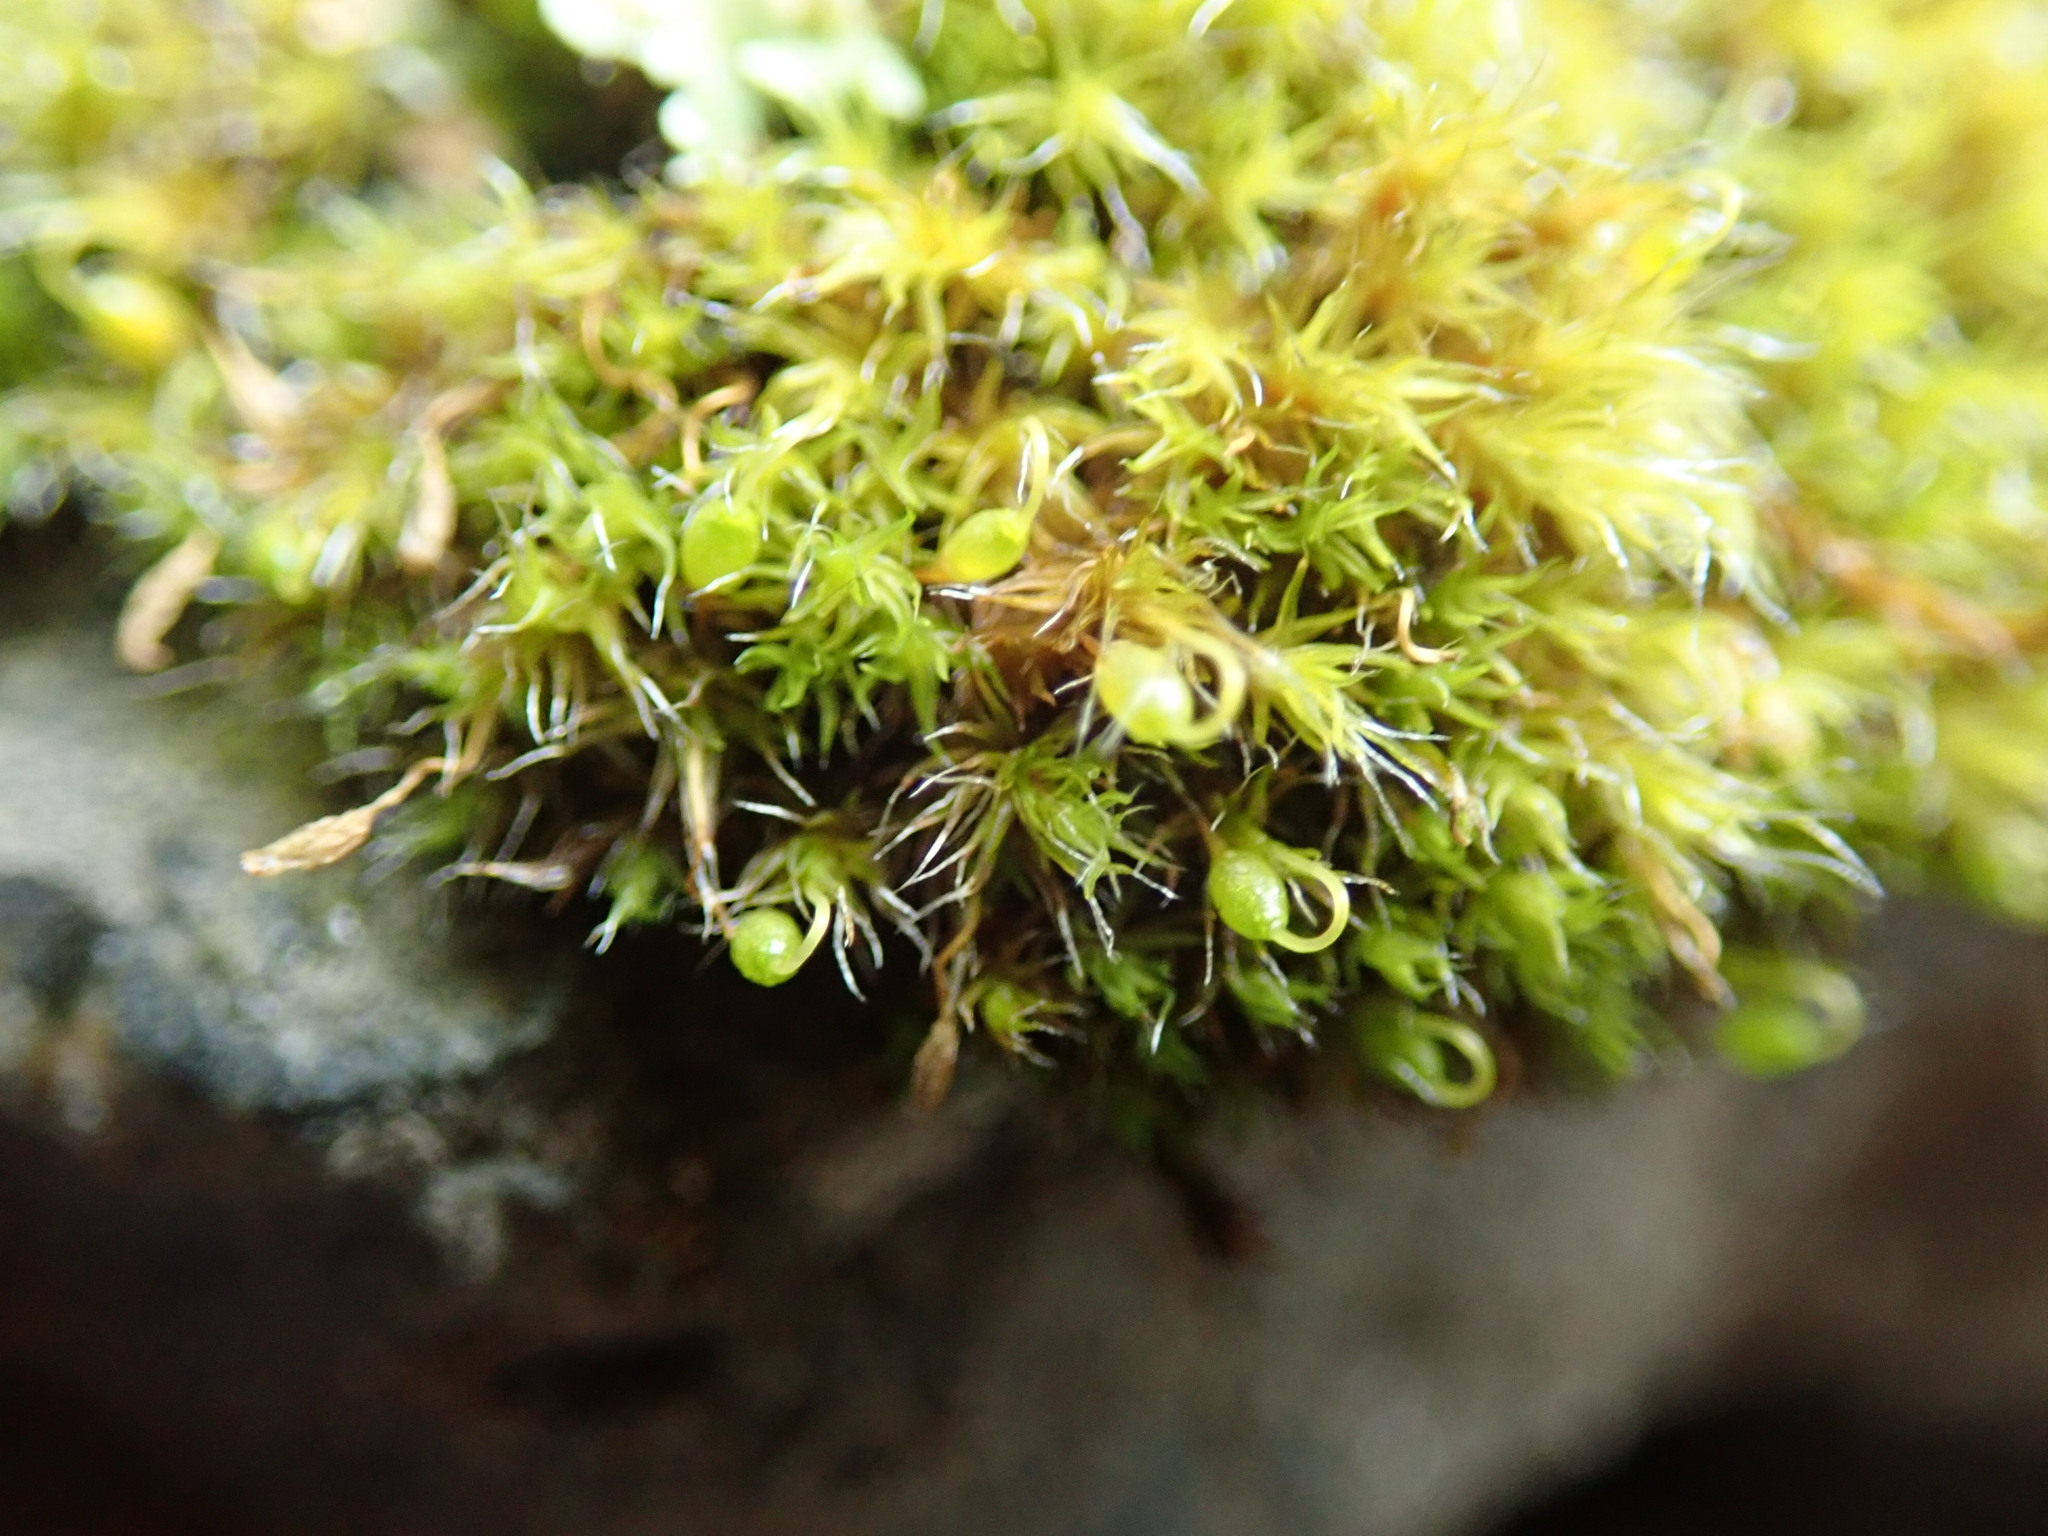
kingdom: Plantae
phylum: Bryophyta
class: Bryopsida
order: Grimmiales
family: Grimmiaceae
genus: Grimmia
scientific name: Grimmia pulvinata
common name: Grey-cushioned grimmia
